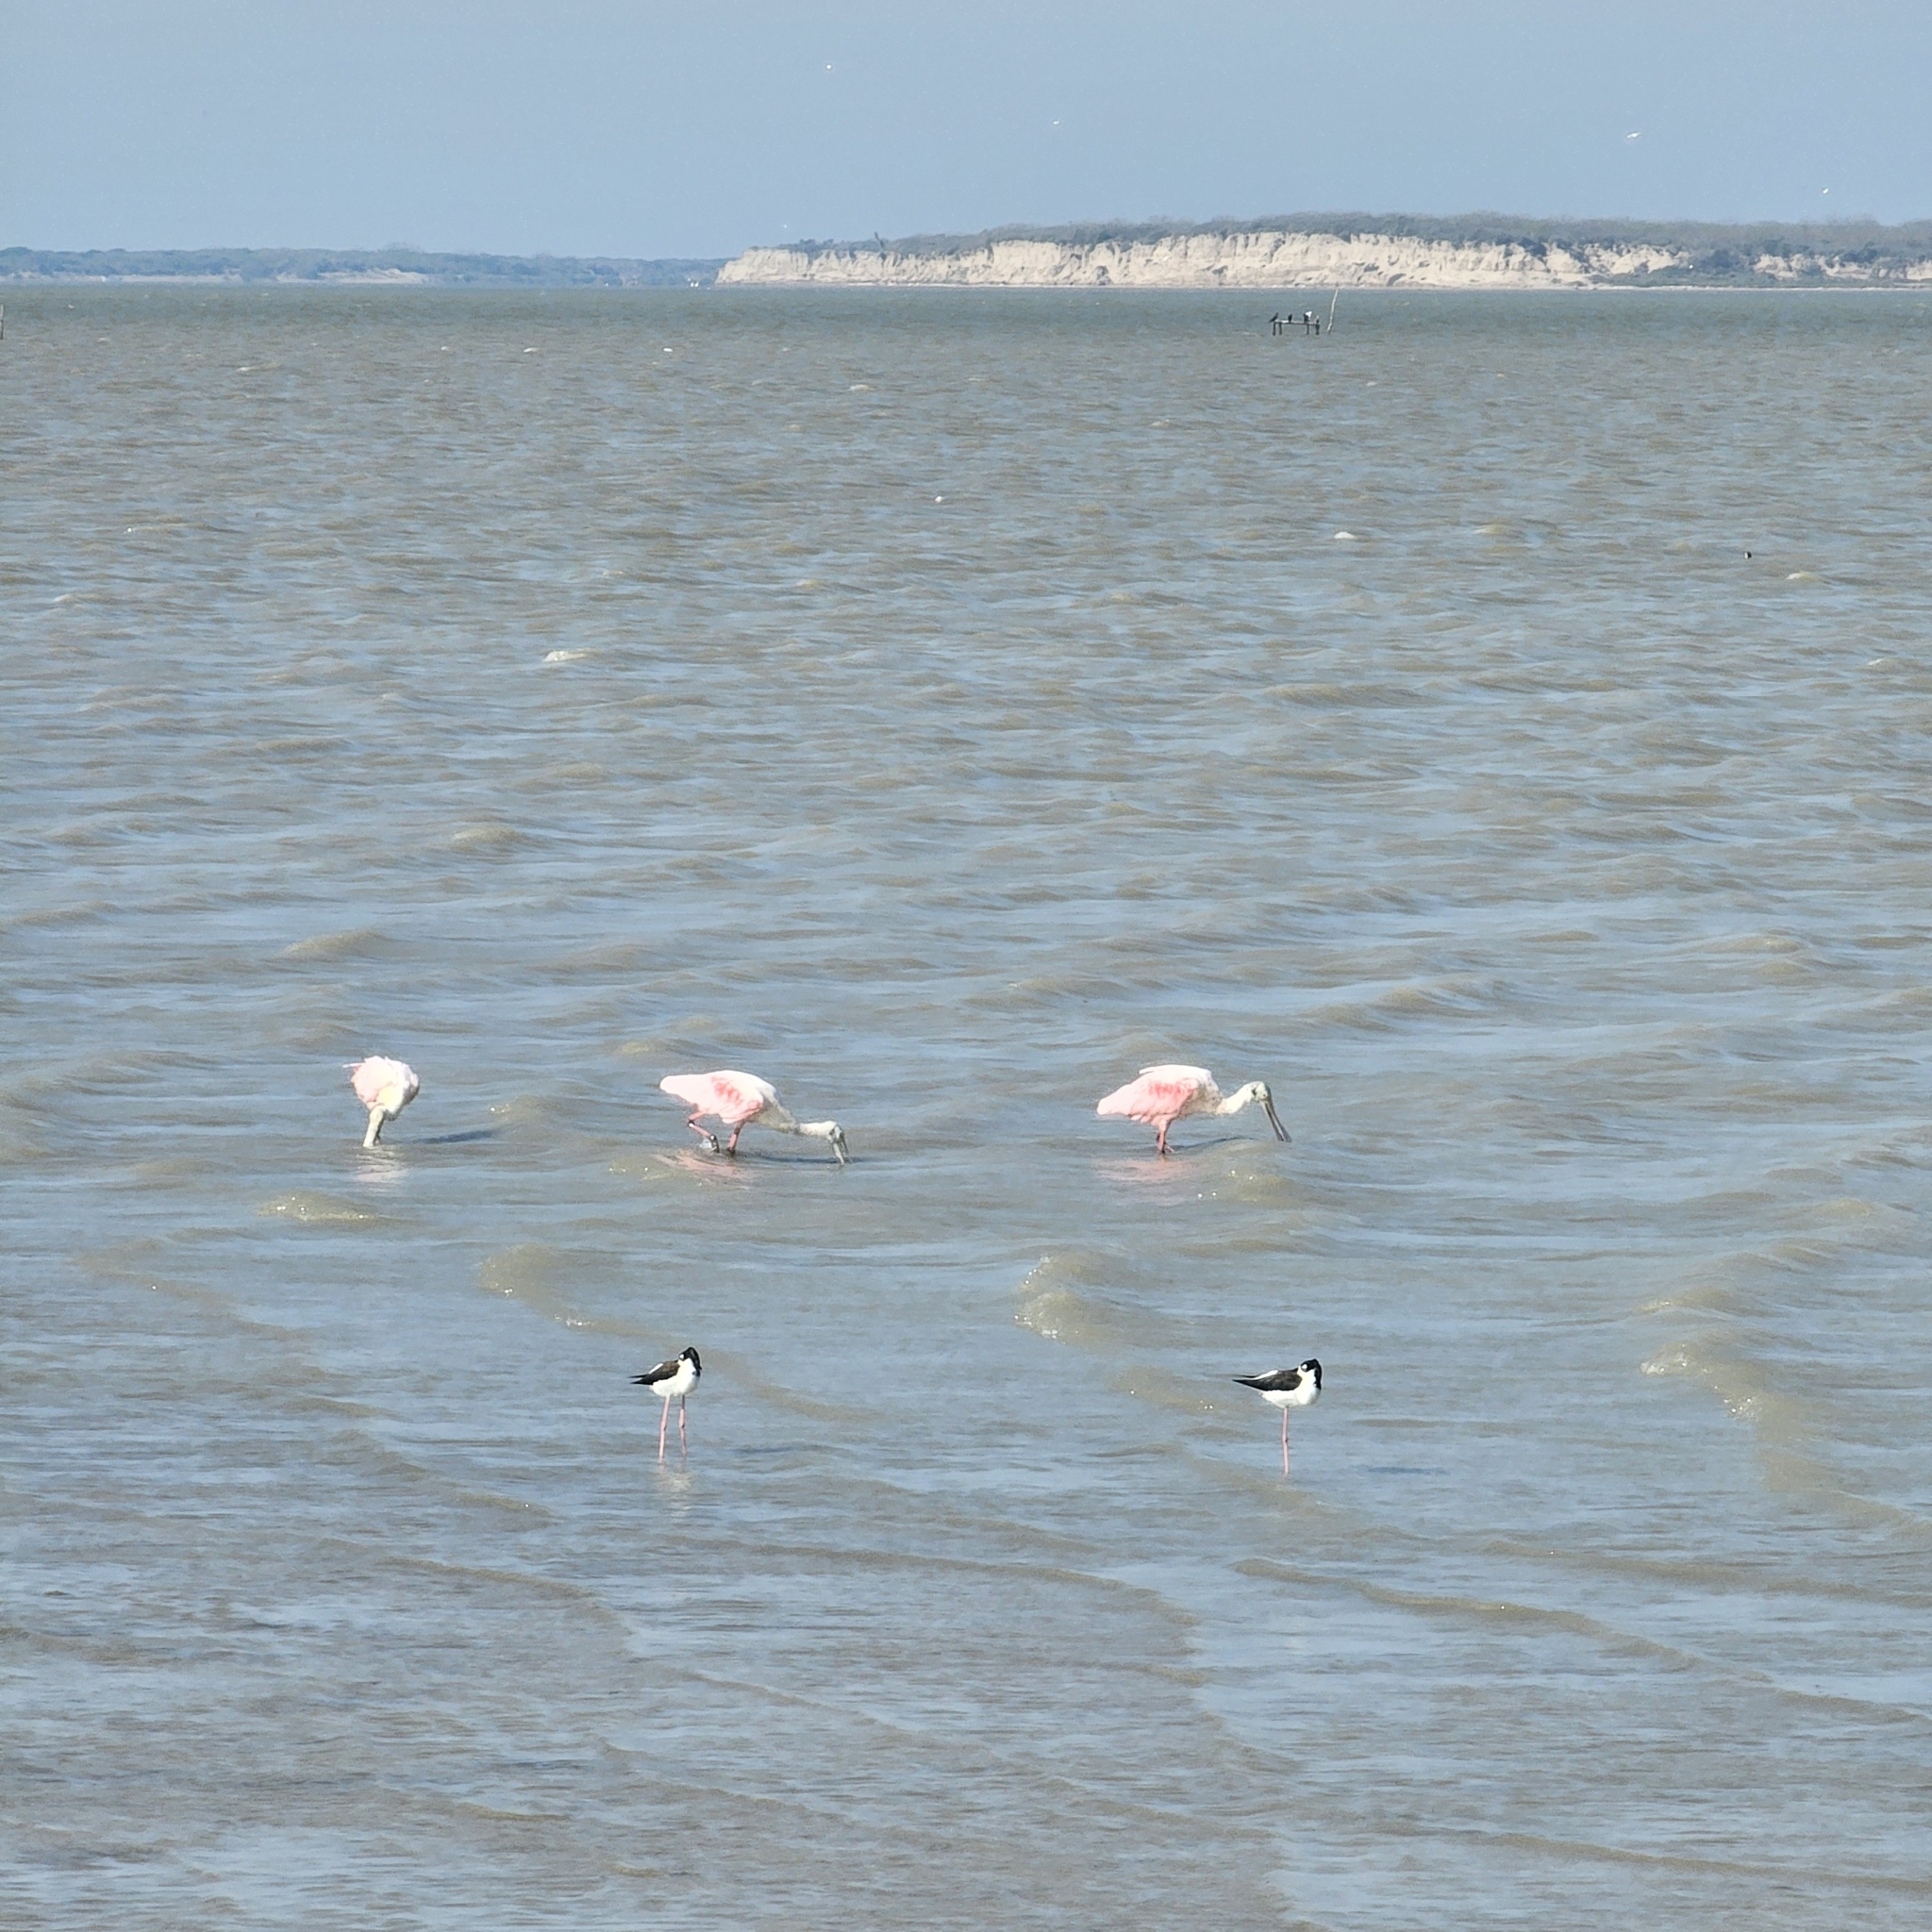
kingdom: Animalia
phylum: Chordata
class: Aves
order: Charadriiformes
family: Recurvirostridae
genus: Himantopus
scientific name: Himantopus mexicanus
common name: Black-necked stilt
